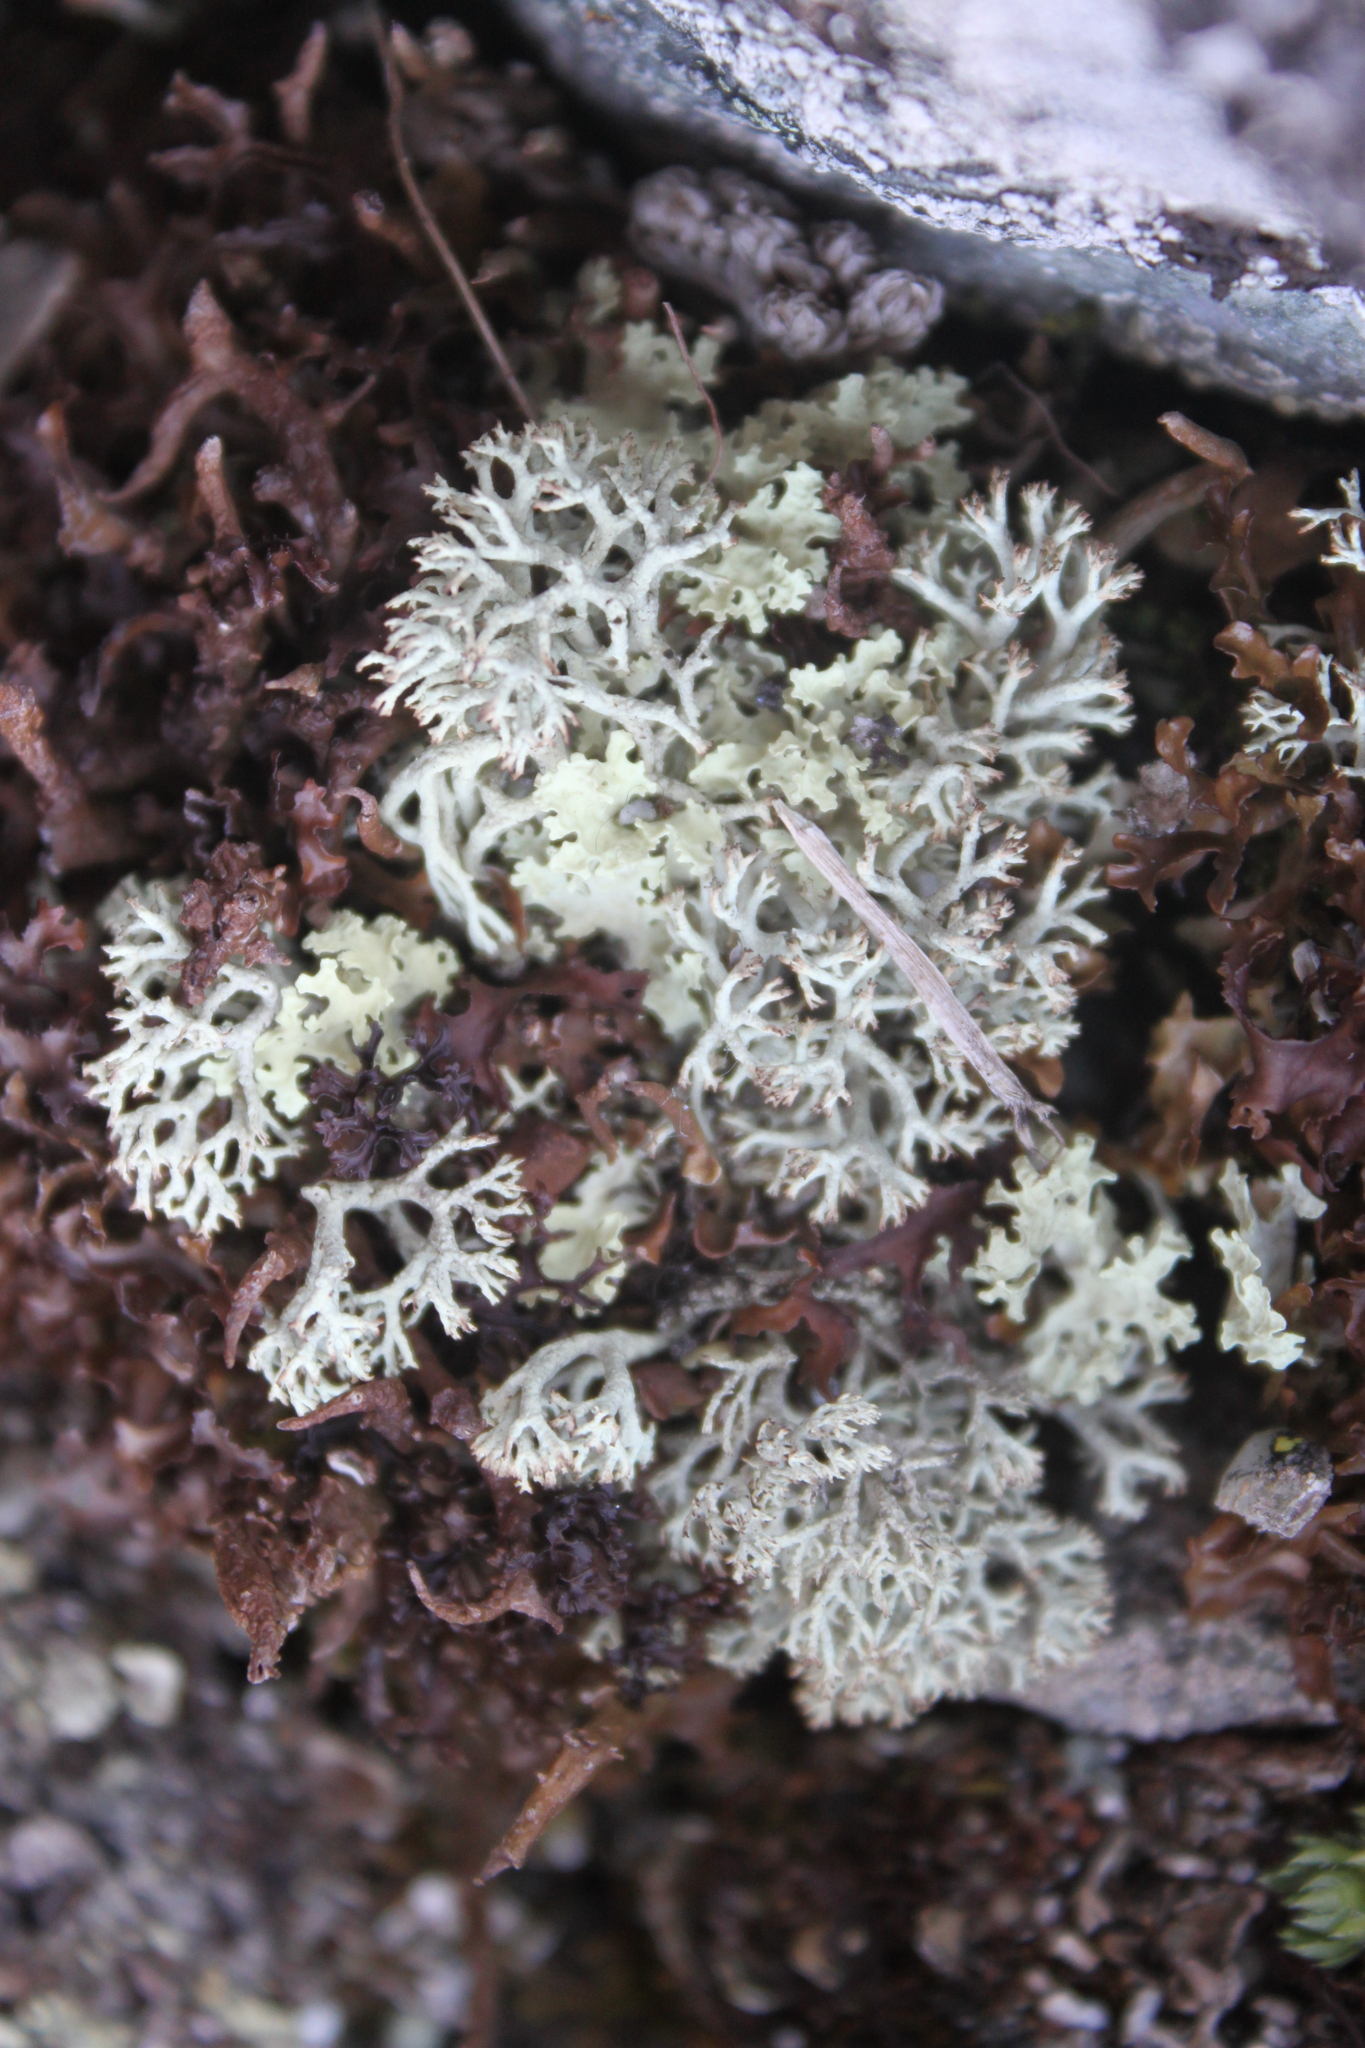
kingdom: Fungi
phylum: Ascomycota
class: Lecanoromycetes
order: Lecanorales
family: Parmeliaceae
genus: Nephromopsis
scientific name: Nephromopsis nivalis
